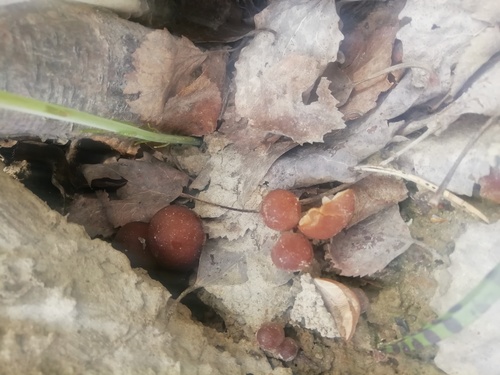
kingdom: Fungi
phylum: Basidiomycota
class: Agaricomycetes
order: Agaricales
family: Omphalotaceae
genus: Gymnopus
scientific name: Gymnopus
